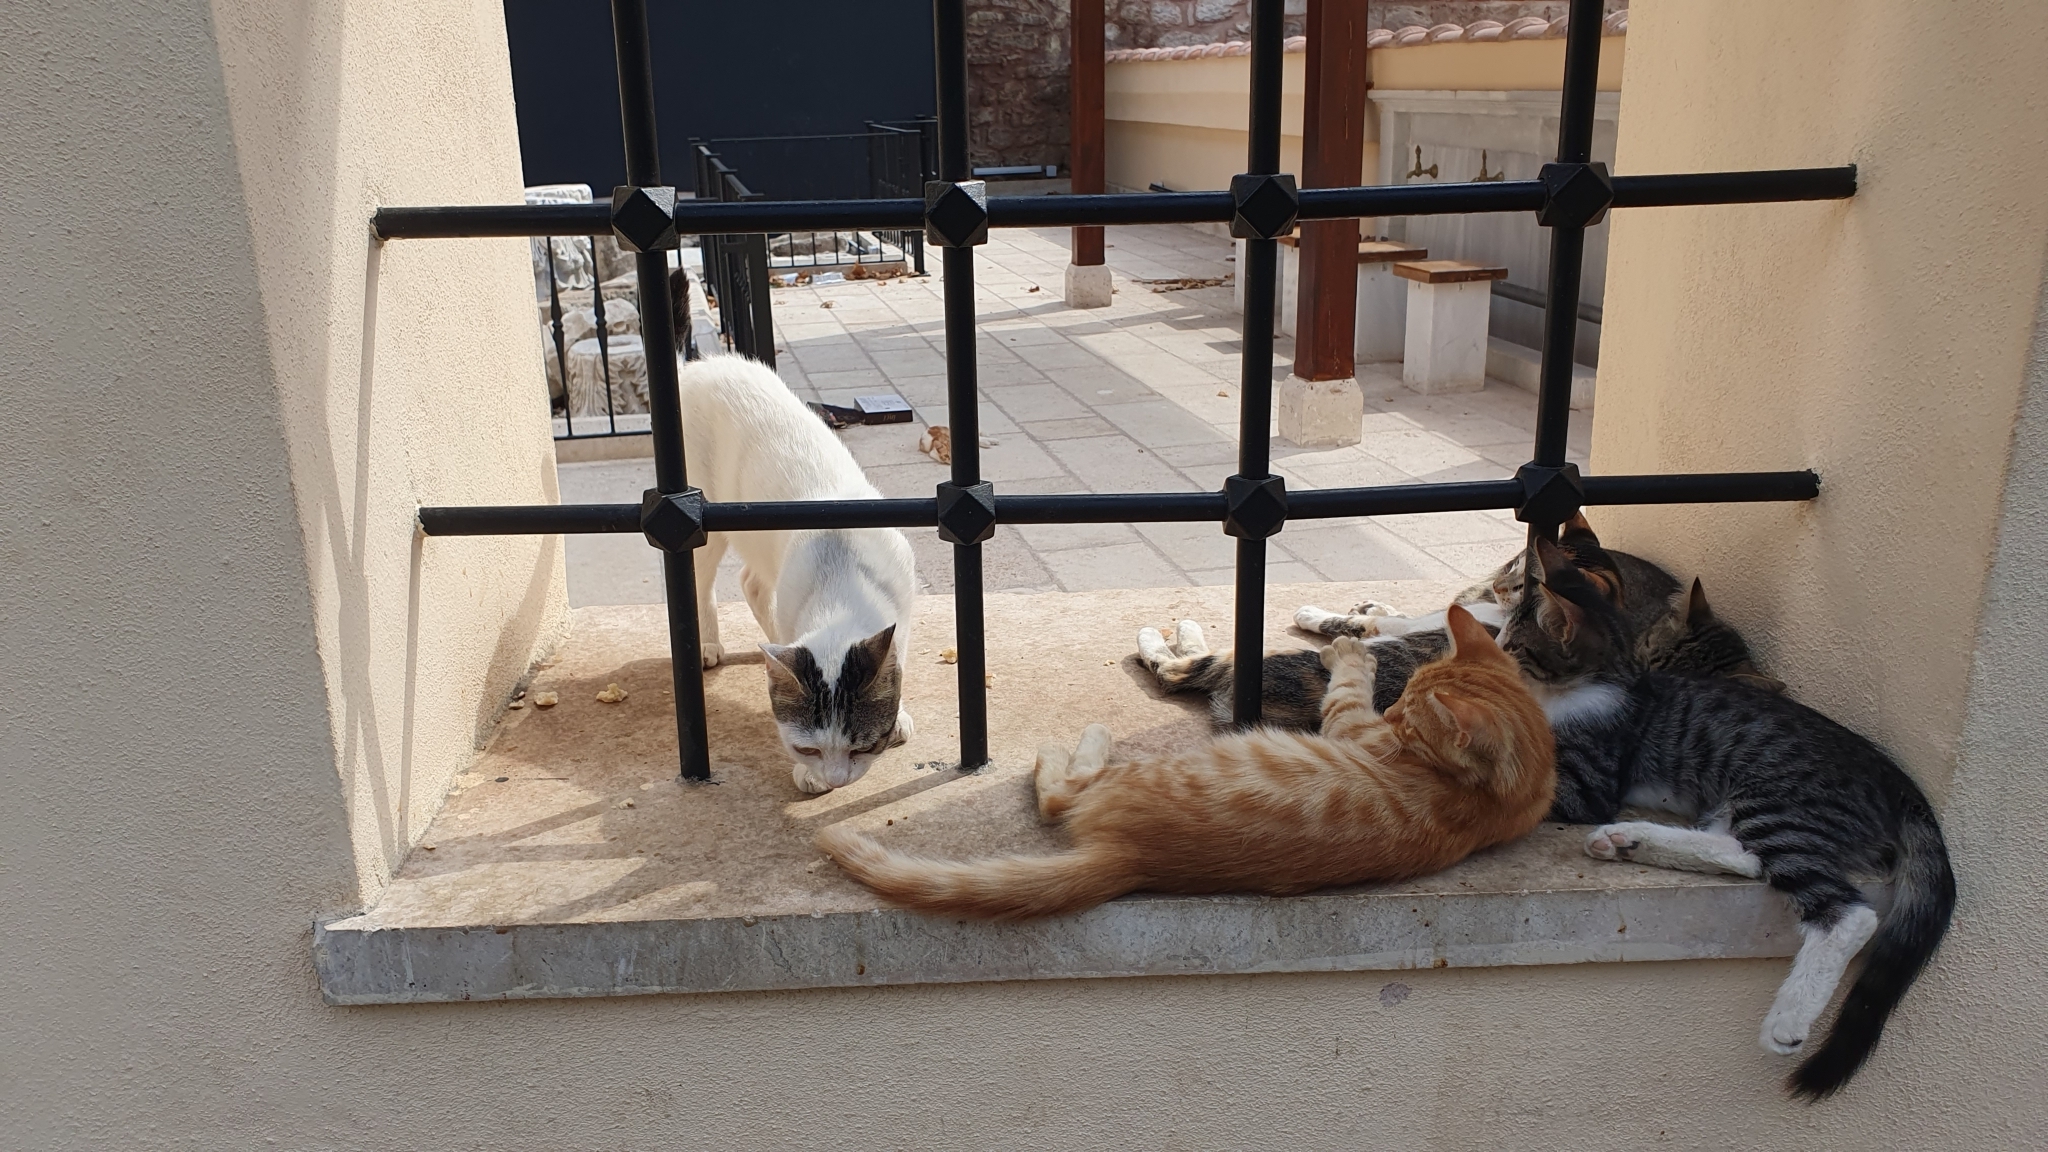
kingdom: Animalia
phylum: Chordata
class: Mammalia
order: Carnivora
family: Felidae
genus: Felis
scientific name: Felis catus
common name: Domestic cat
